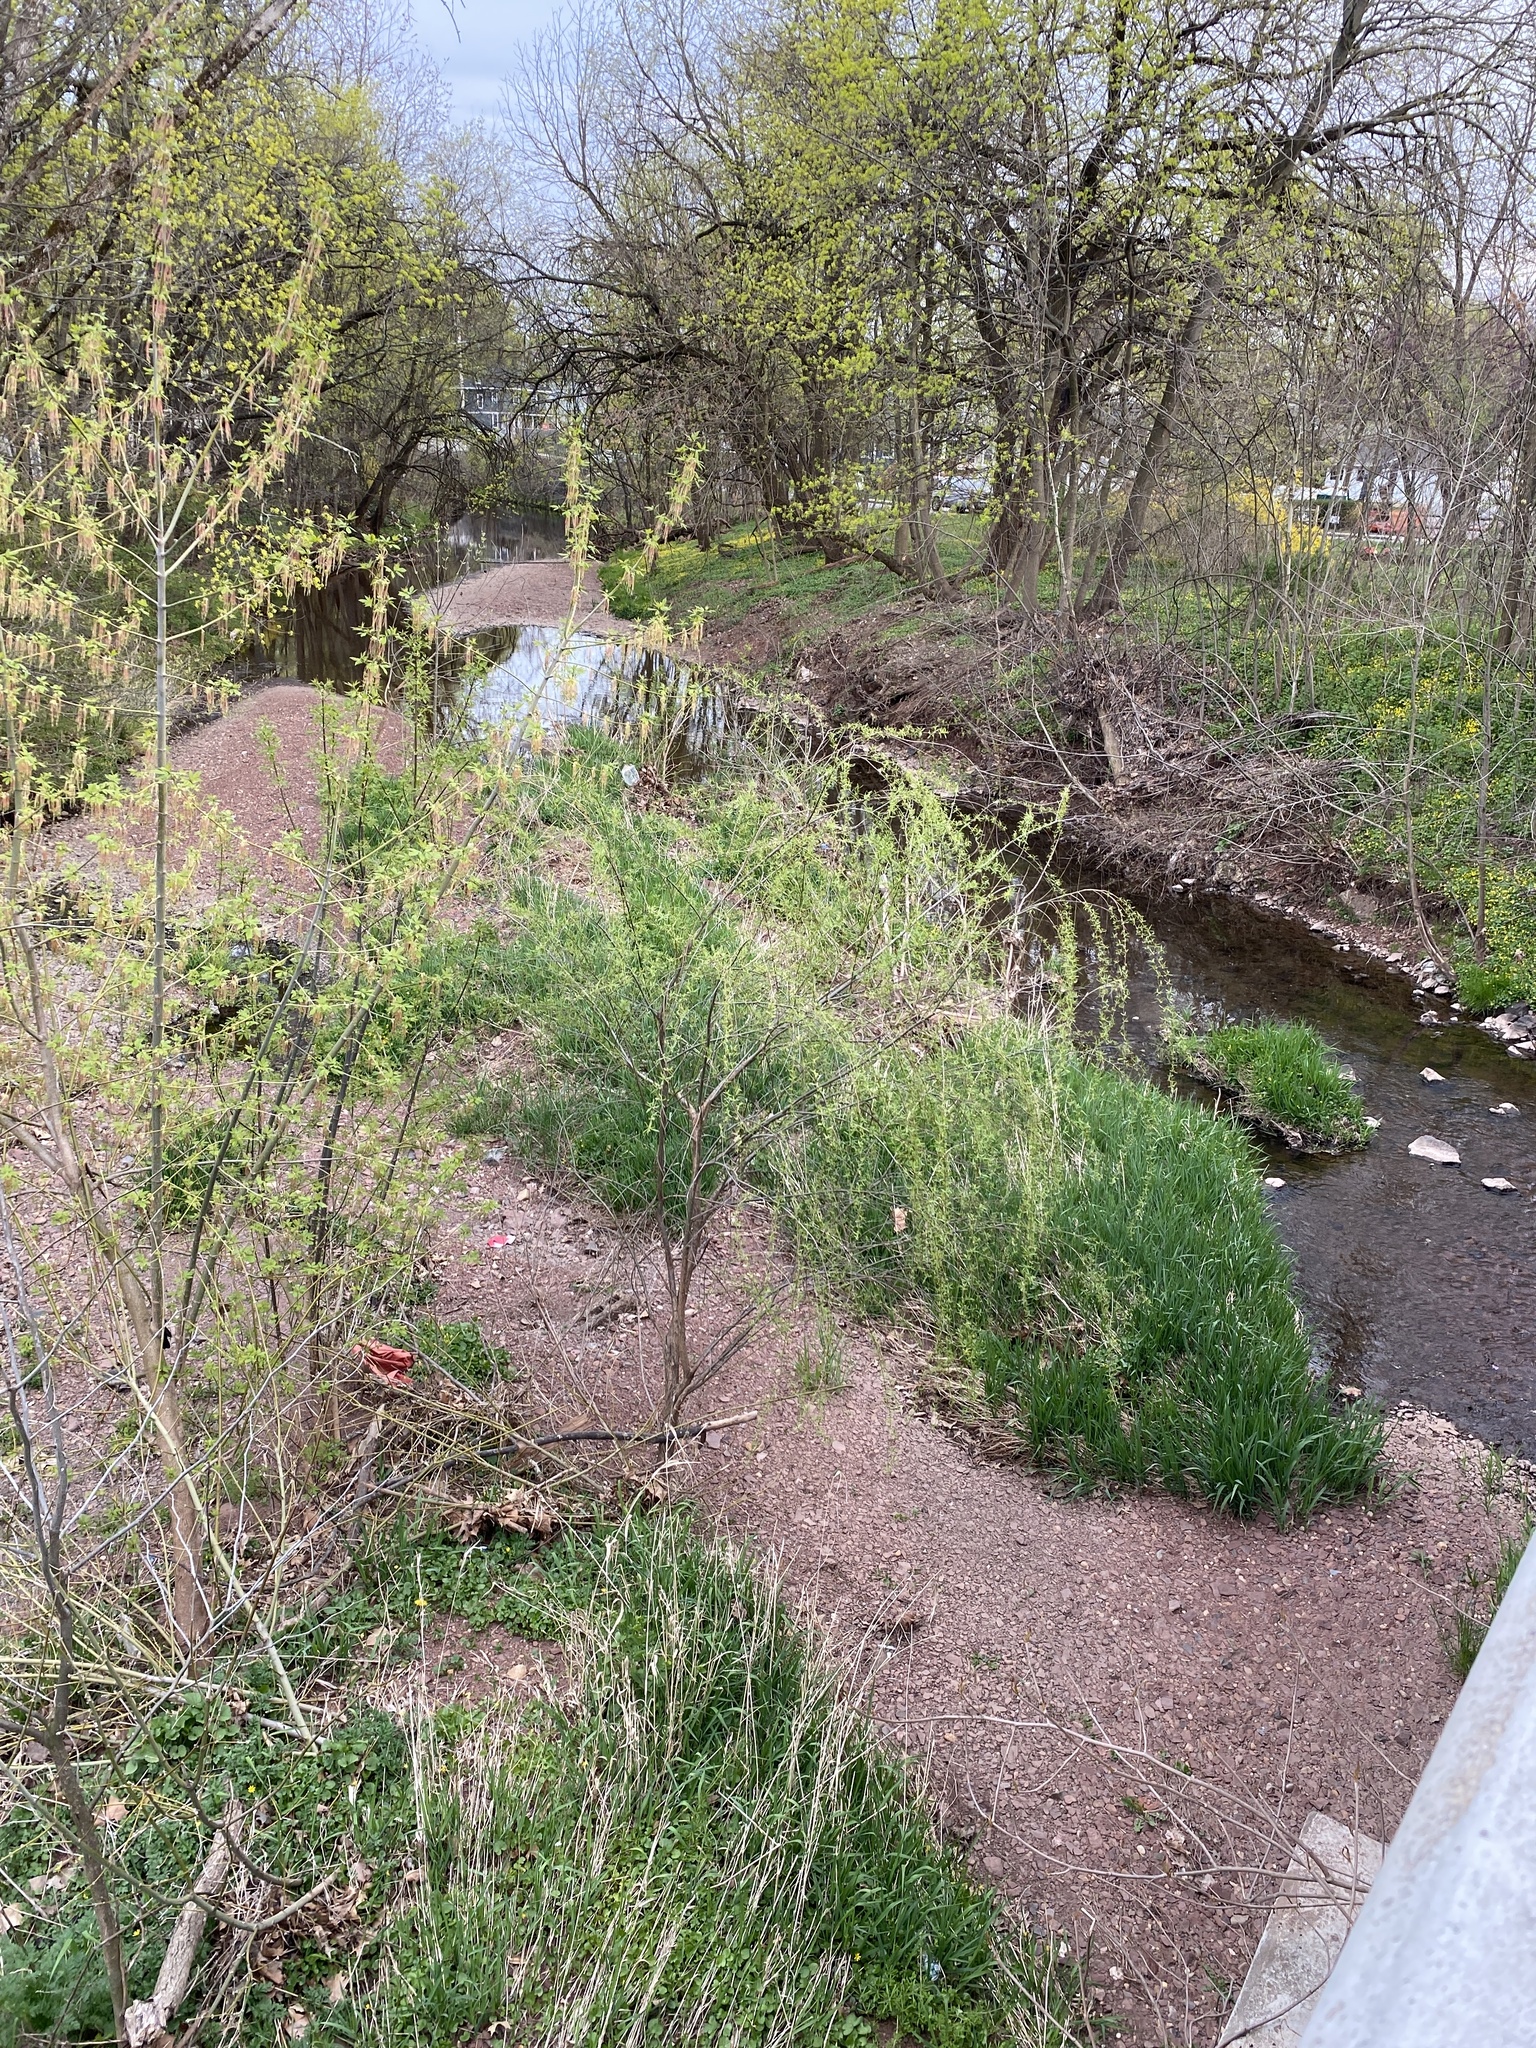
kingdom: Plantae
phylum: Tracheophyta
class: Magnoliopsida
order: Sapindales
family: Sapindaceae
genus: Acer
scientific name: Acer negundo
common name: Ashleaf maple
